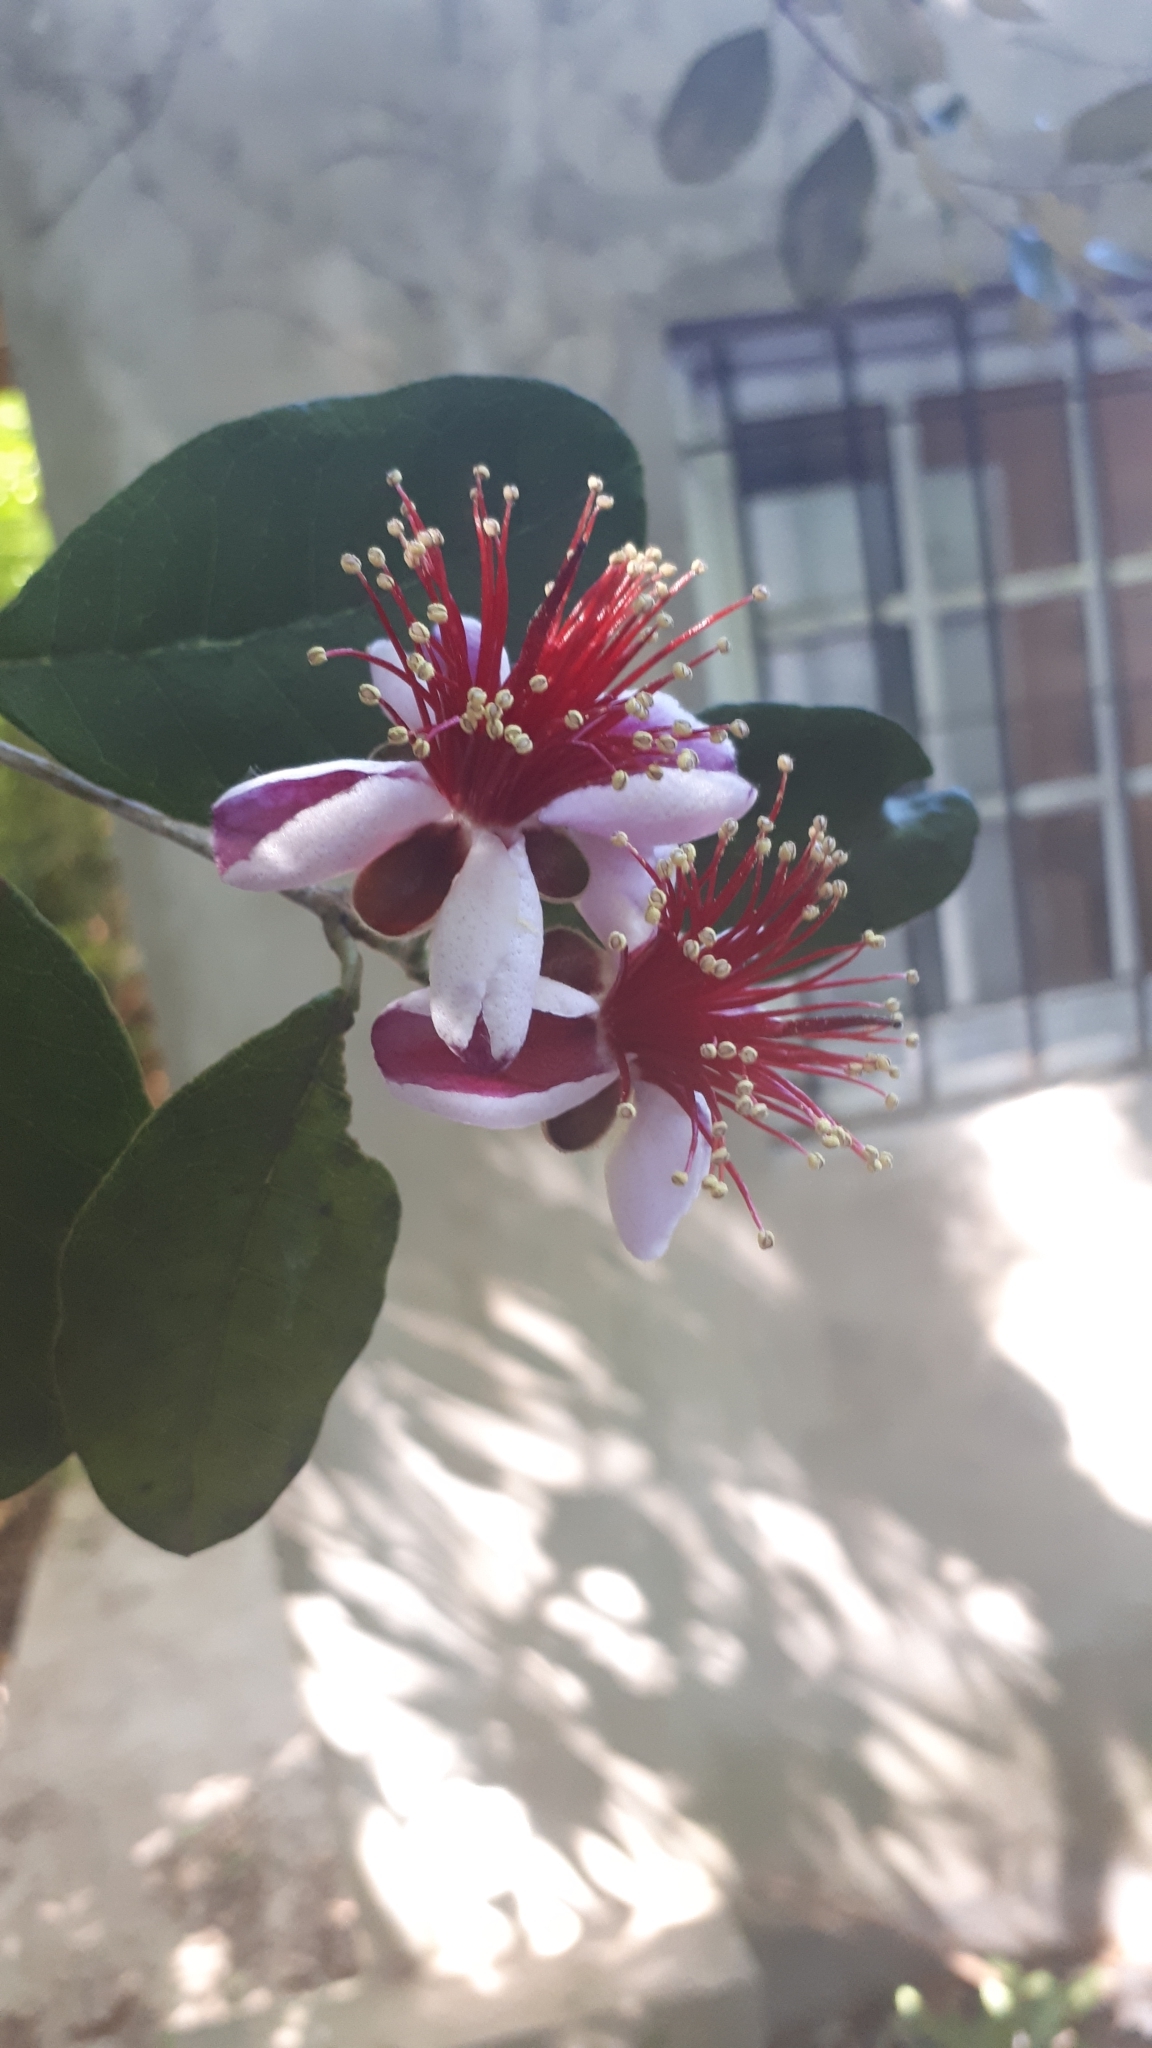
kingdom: Plantae
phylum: Tracheophyta
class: Magnoliopsida
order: Myrtales
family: Myrtaceae
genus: Feijoa
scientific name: Feijoa sellowiana
